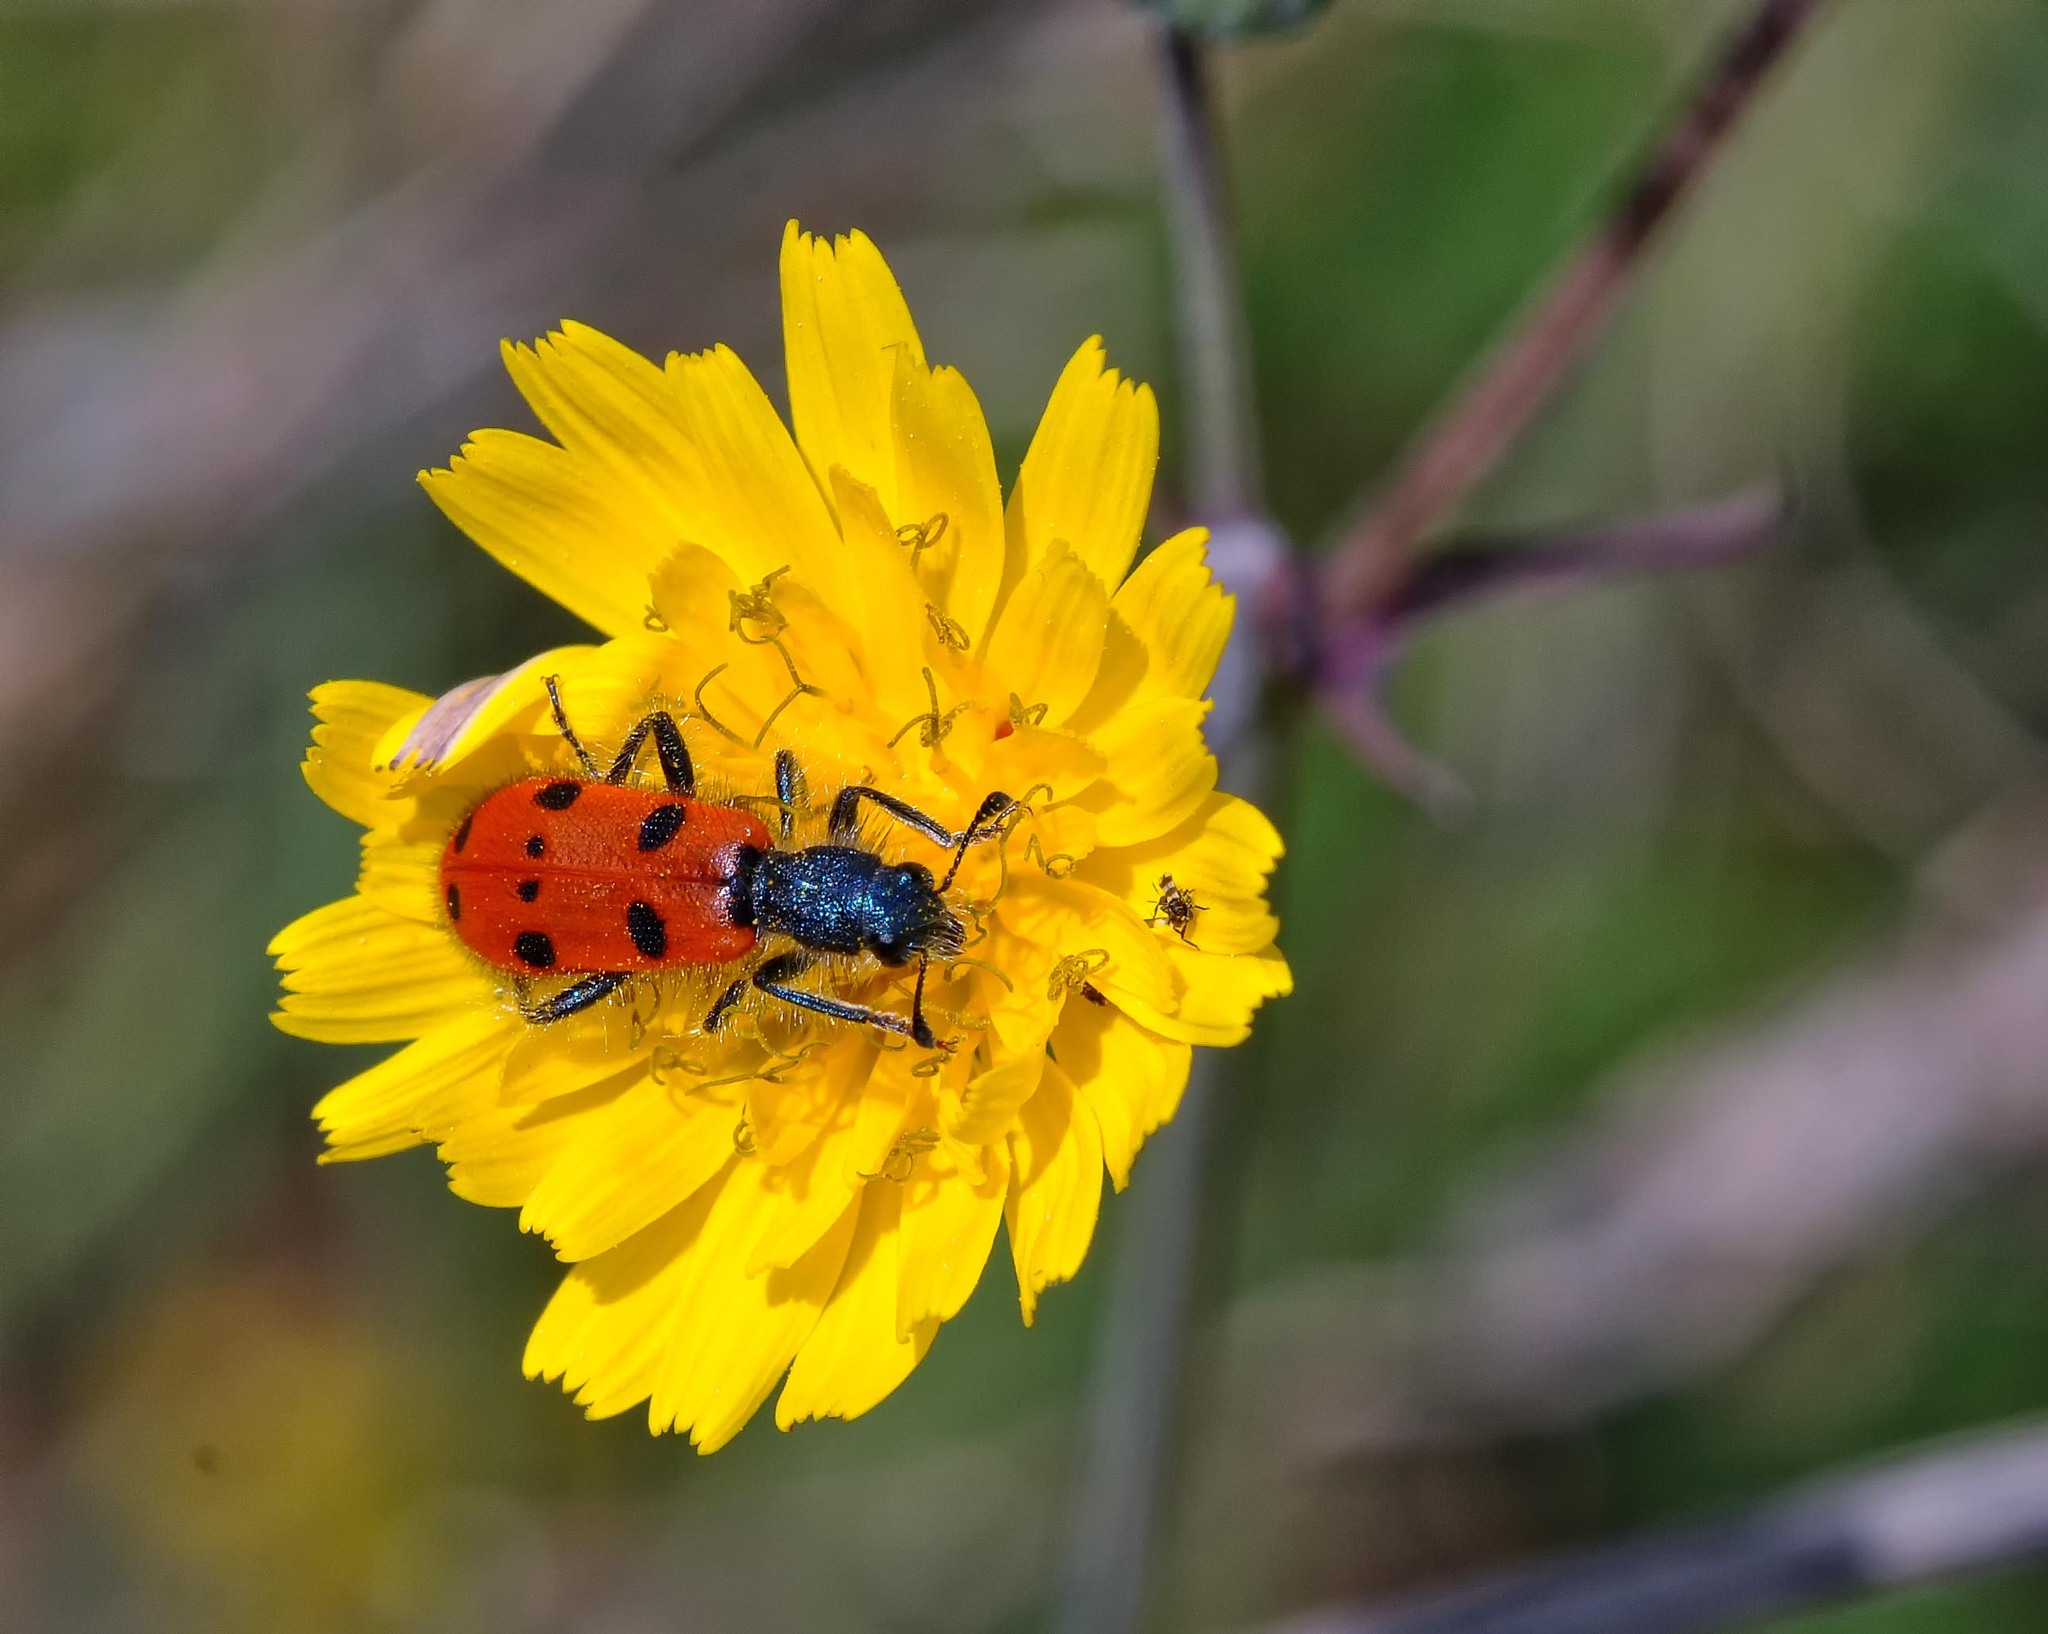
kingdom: Animalia
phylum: Arthropoda
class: Insecta
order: Coleoptera
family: Cleridae
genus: Trichodes
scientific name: Trichodes octopunctatus
